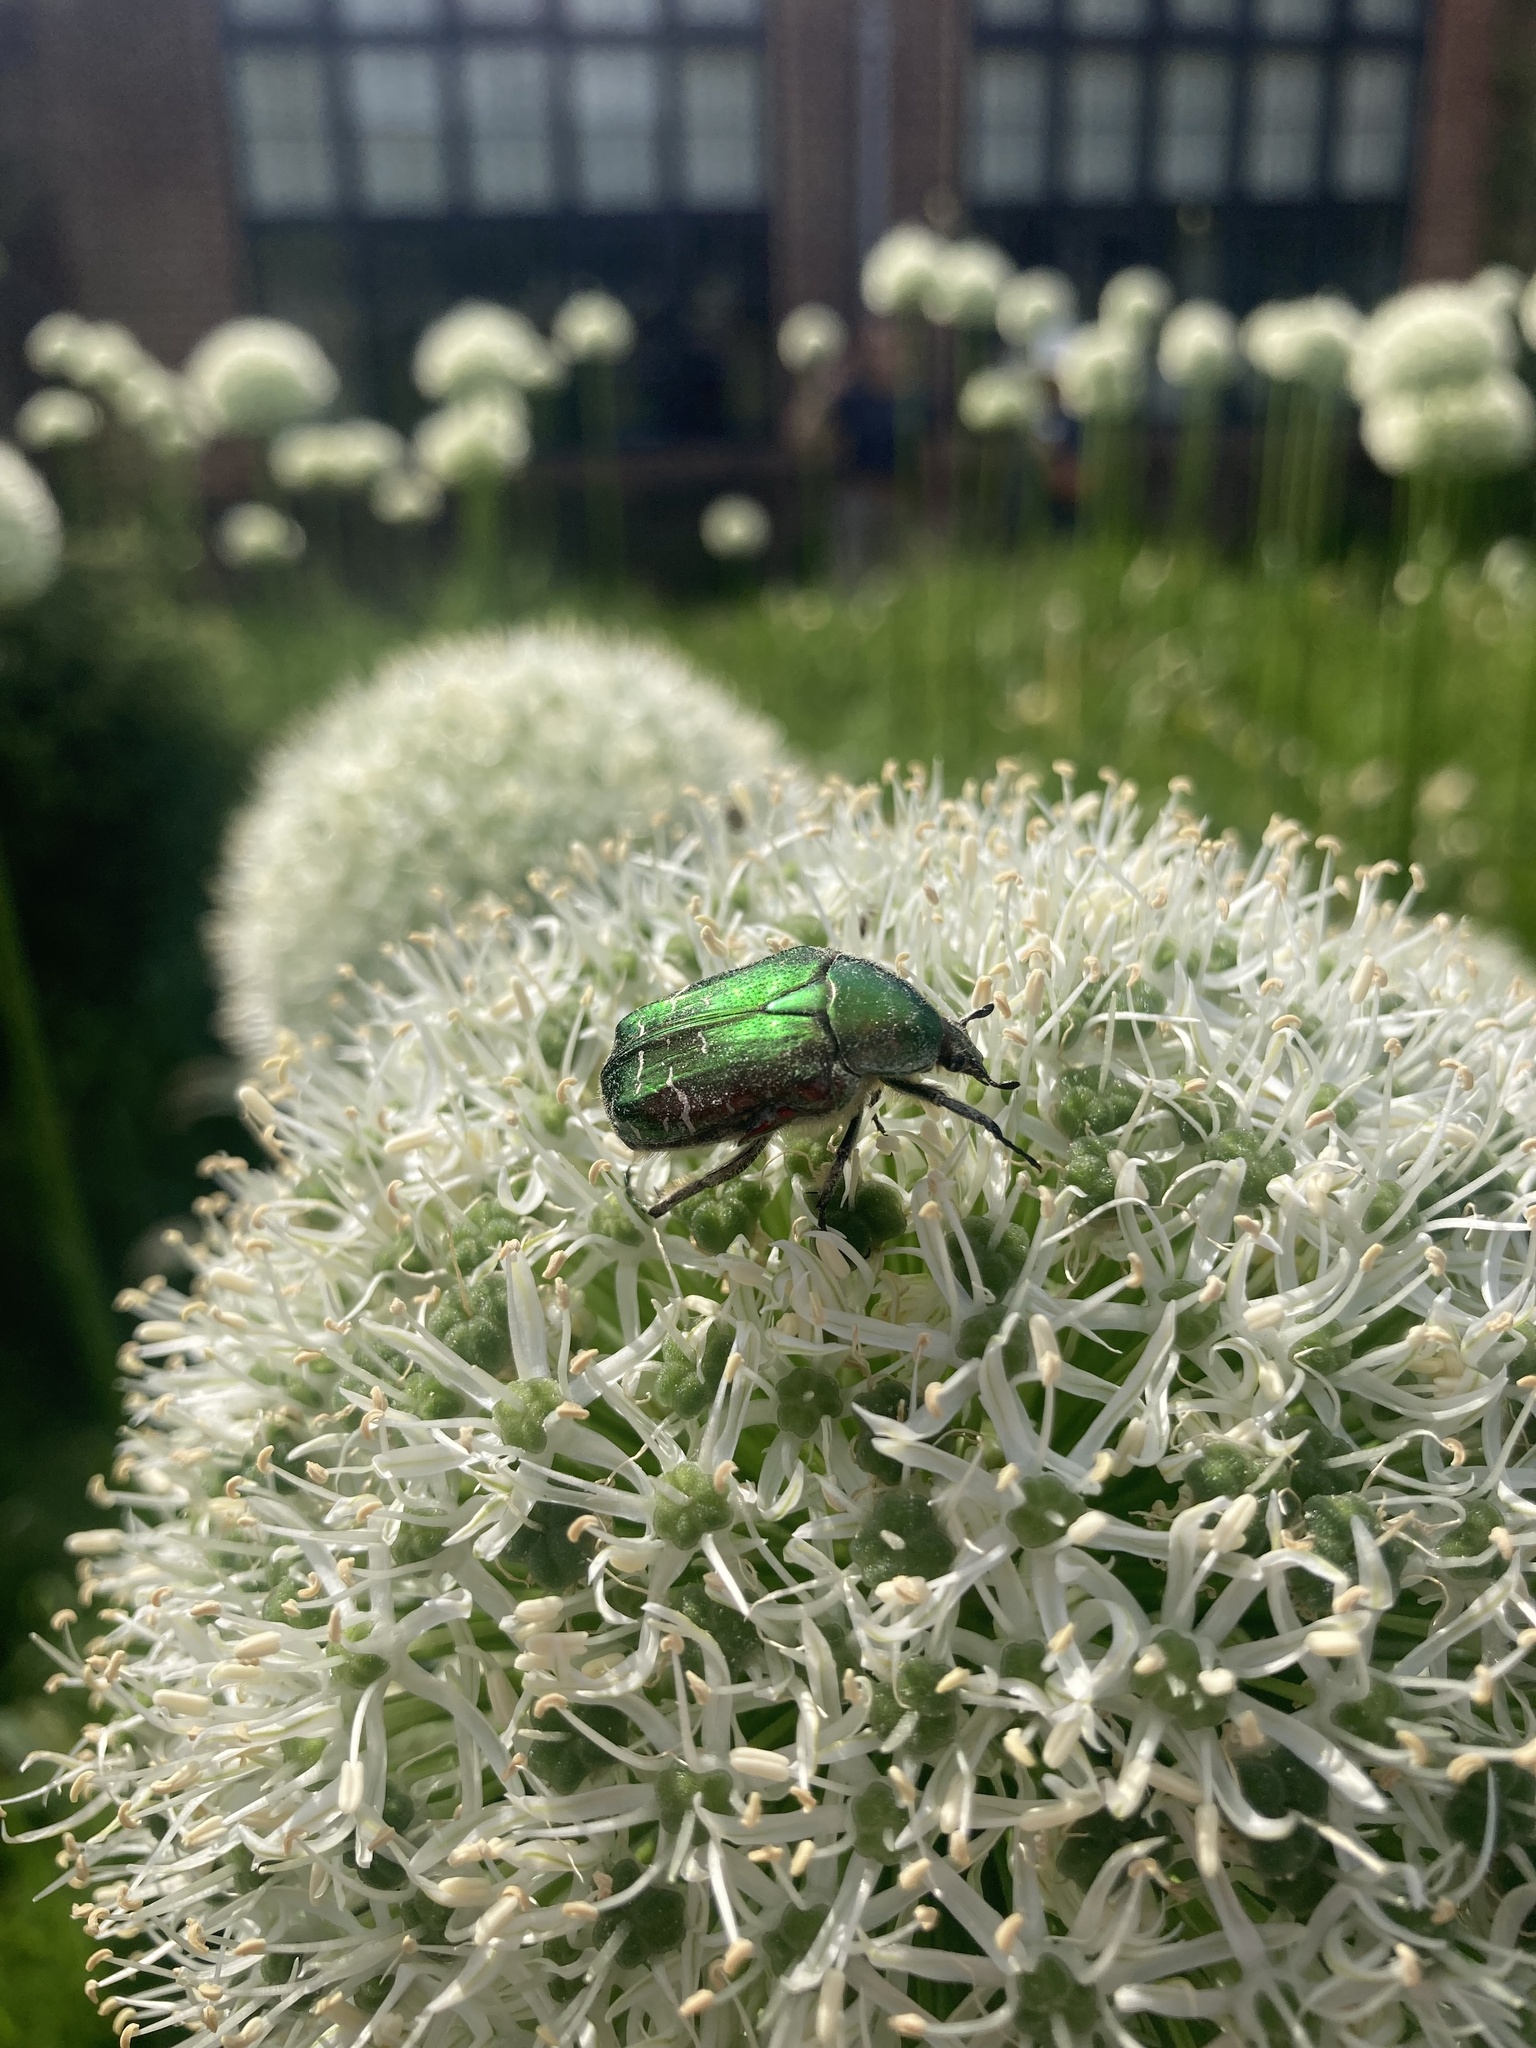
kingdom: Animalia
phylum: Arthropoda
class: Insecta
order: Coleoptera
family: Scarabaeidae
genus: Cetonia
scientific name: Cetonia aurata
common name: Rose chafer
